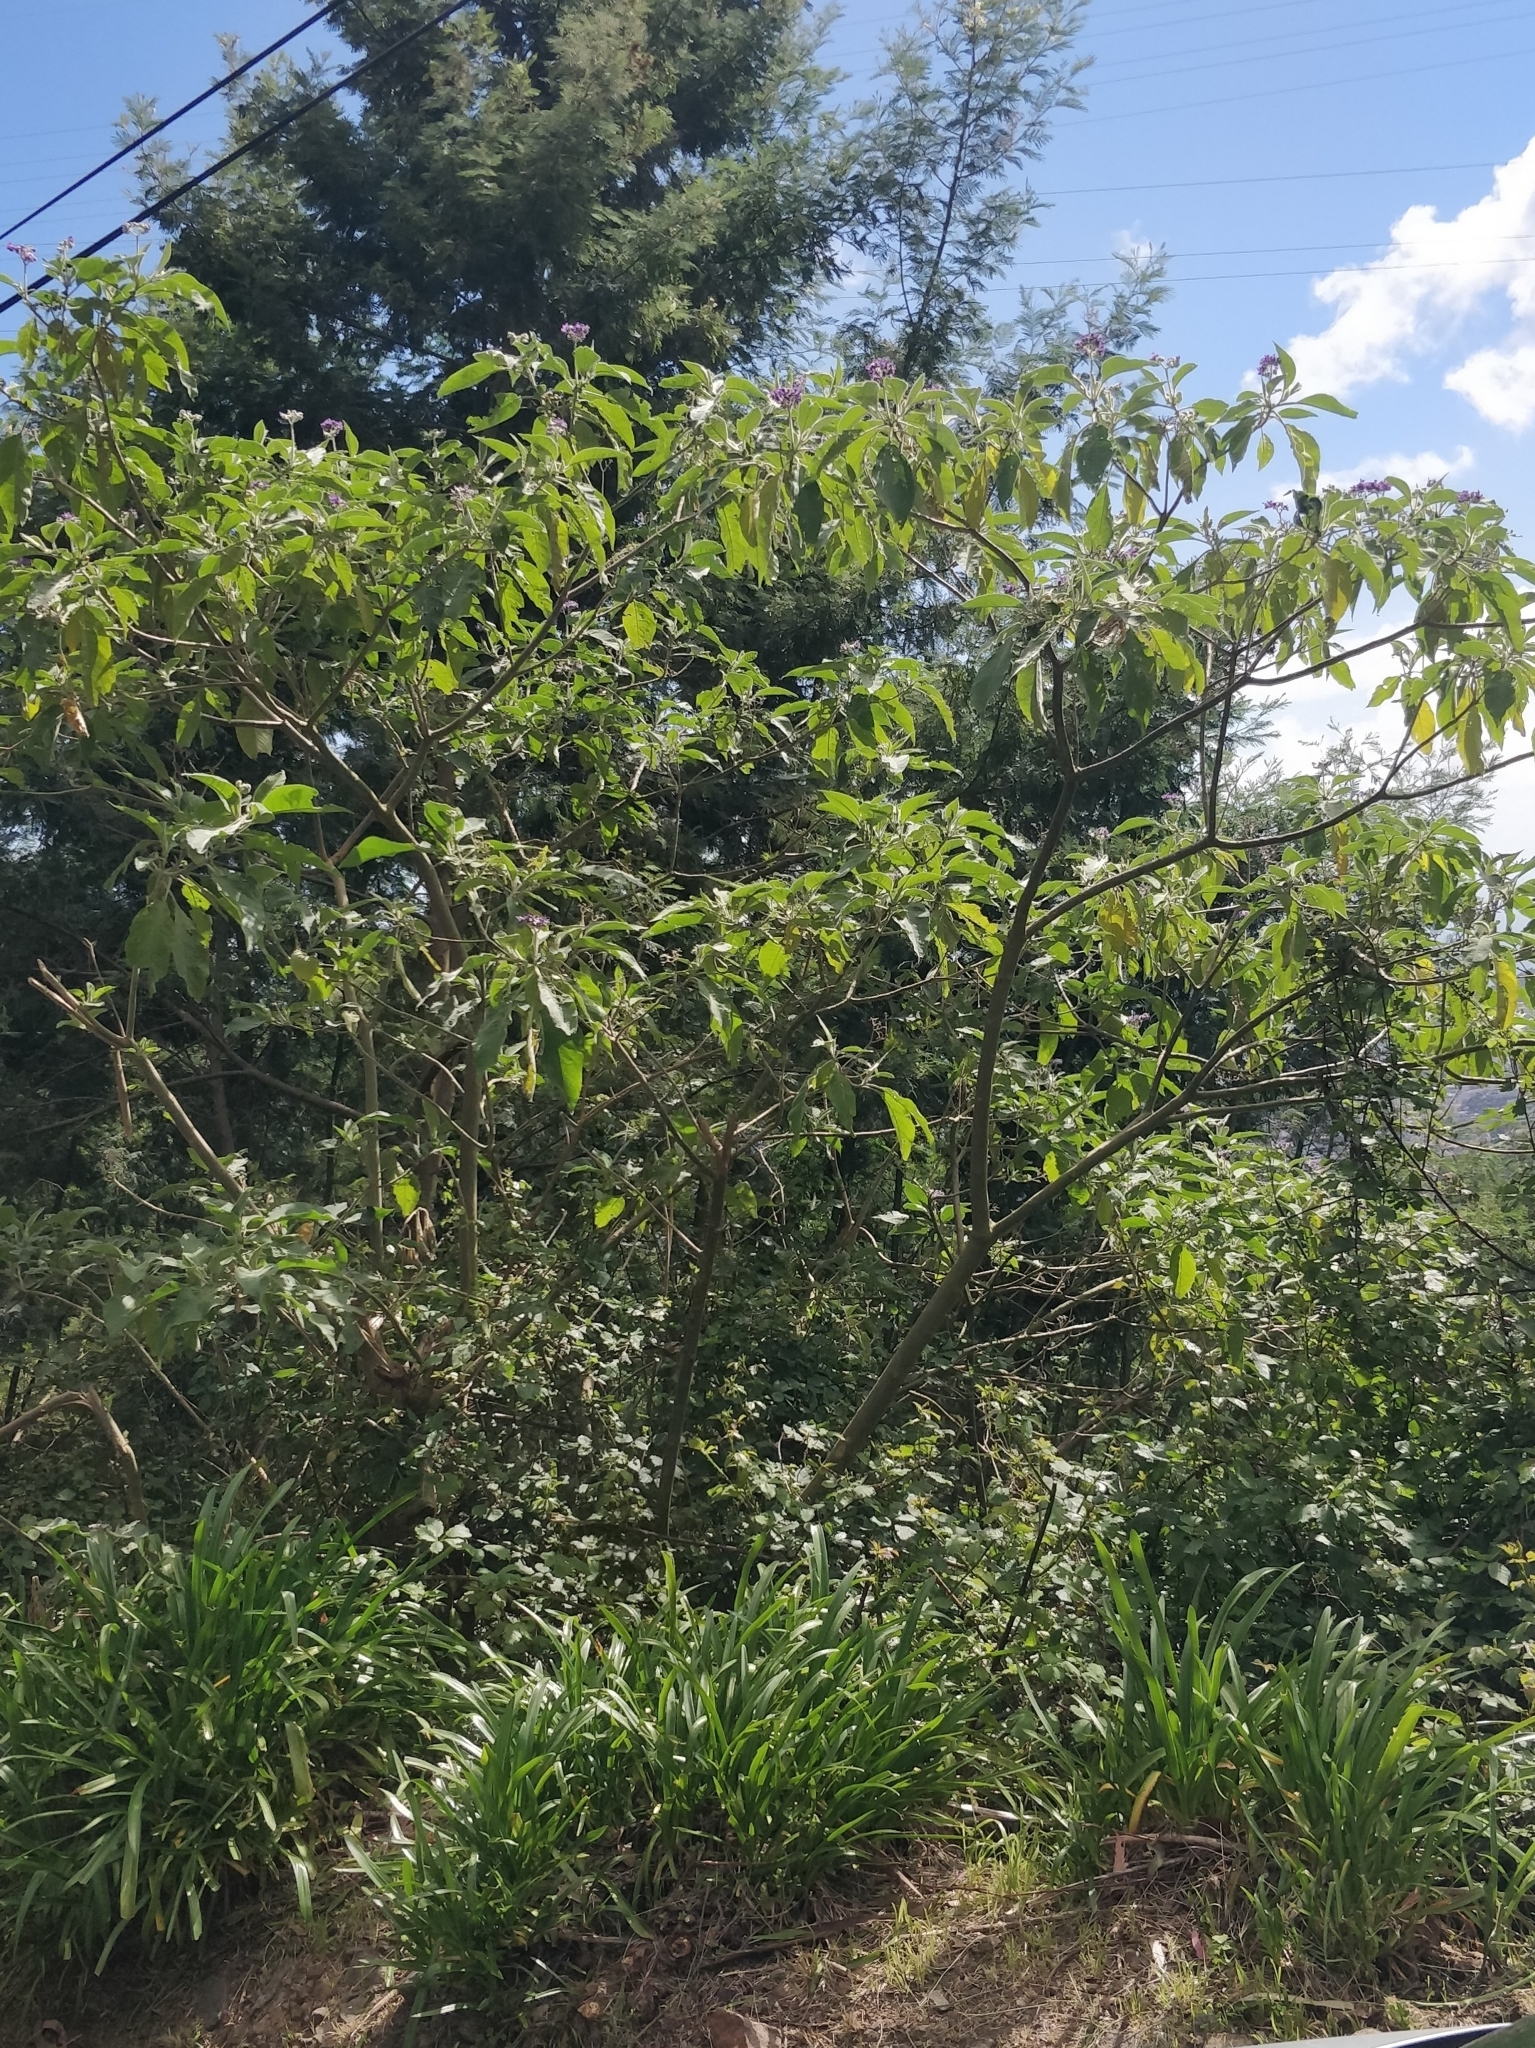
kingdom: Plantae
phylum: Tracheophyta
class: Magnoliopsida
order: Solanales
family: Solanaceae
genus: Solanum
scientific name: Solanum mauritianum
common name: Earleaf nightshade
